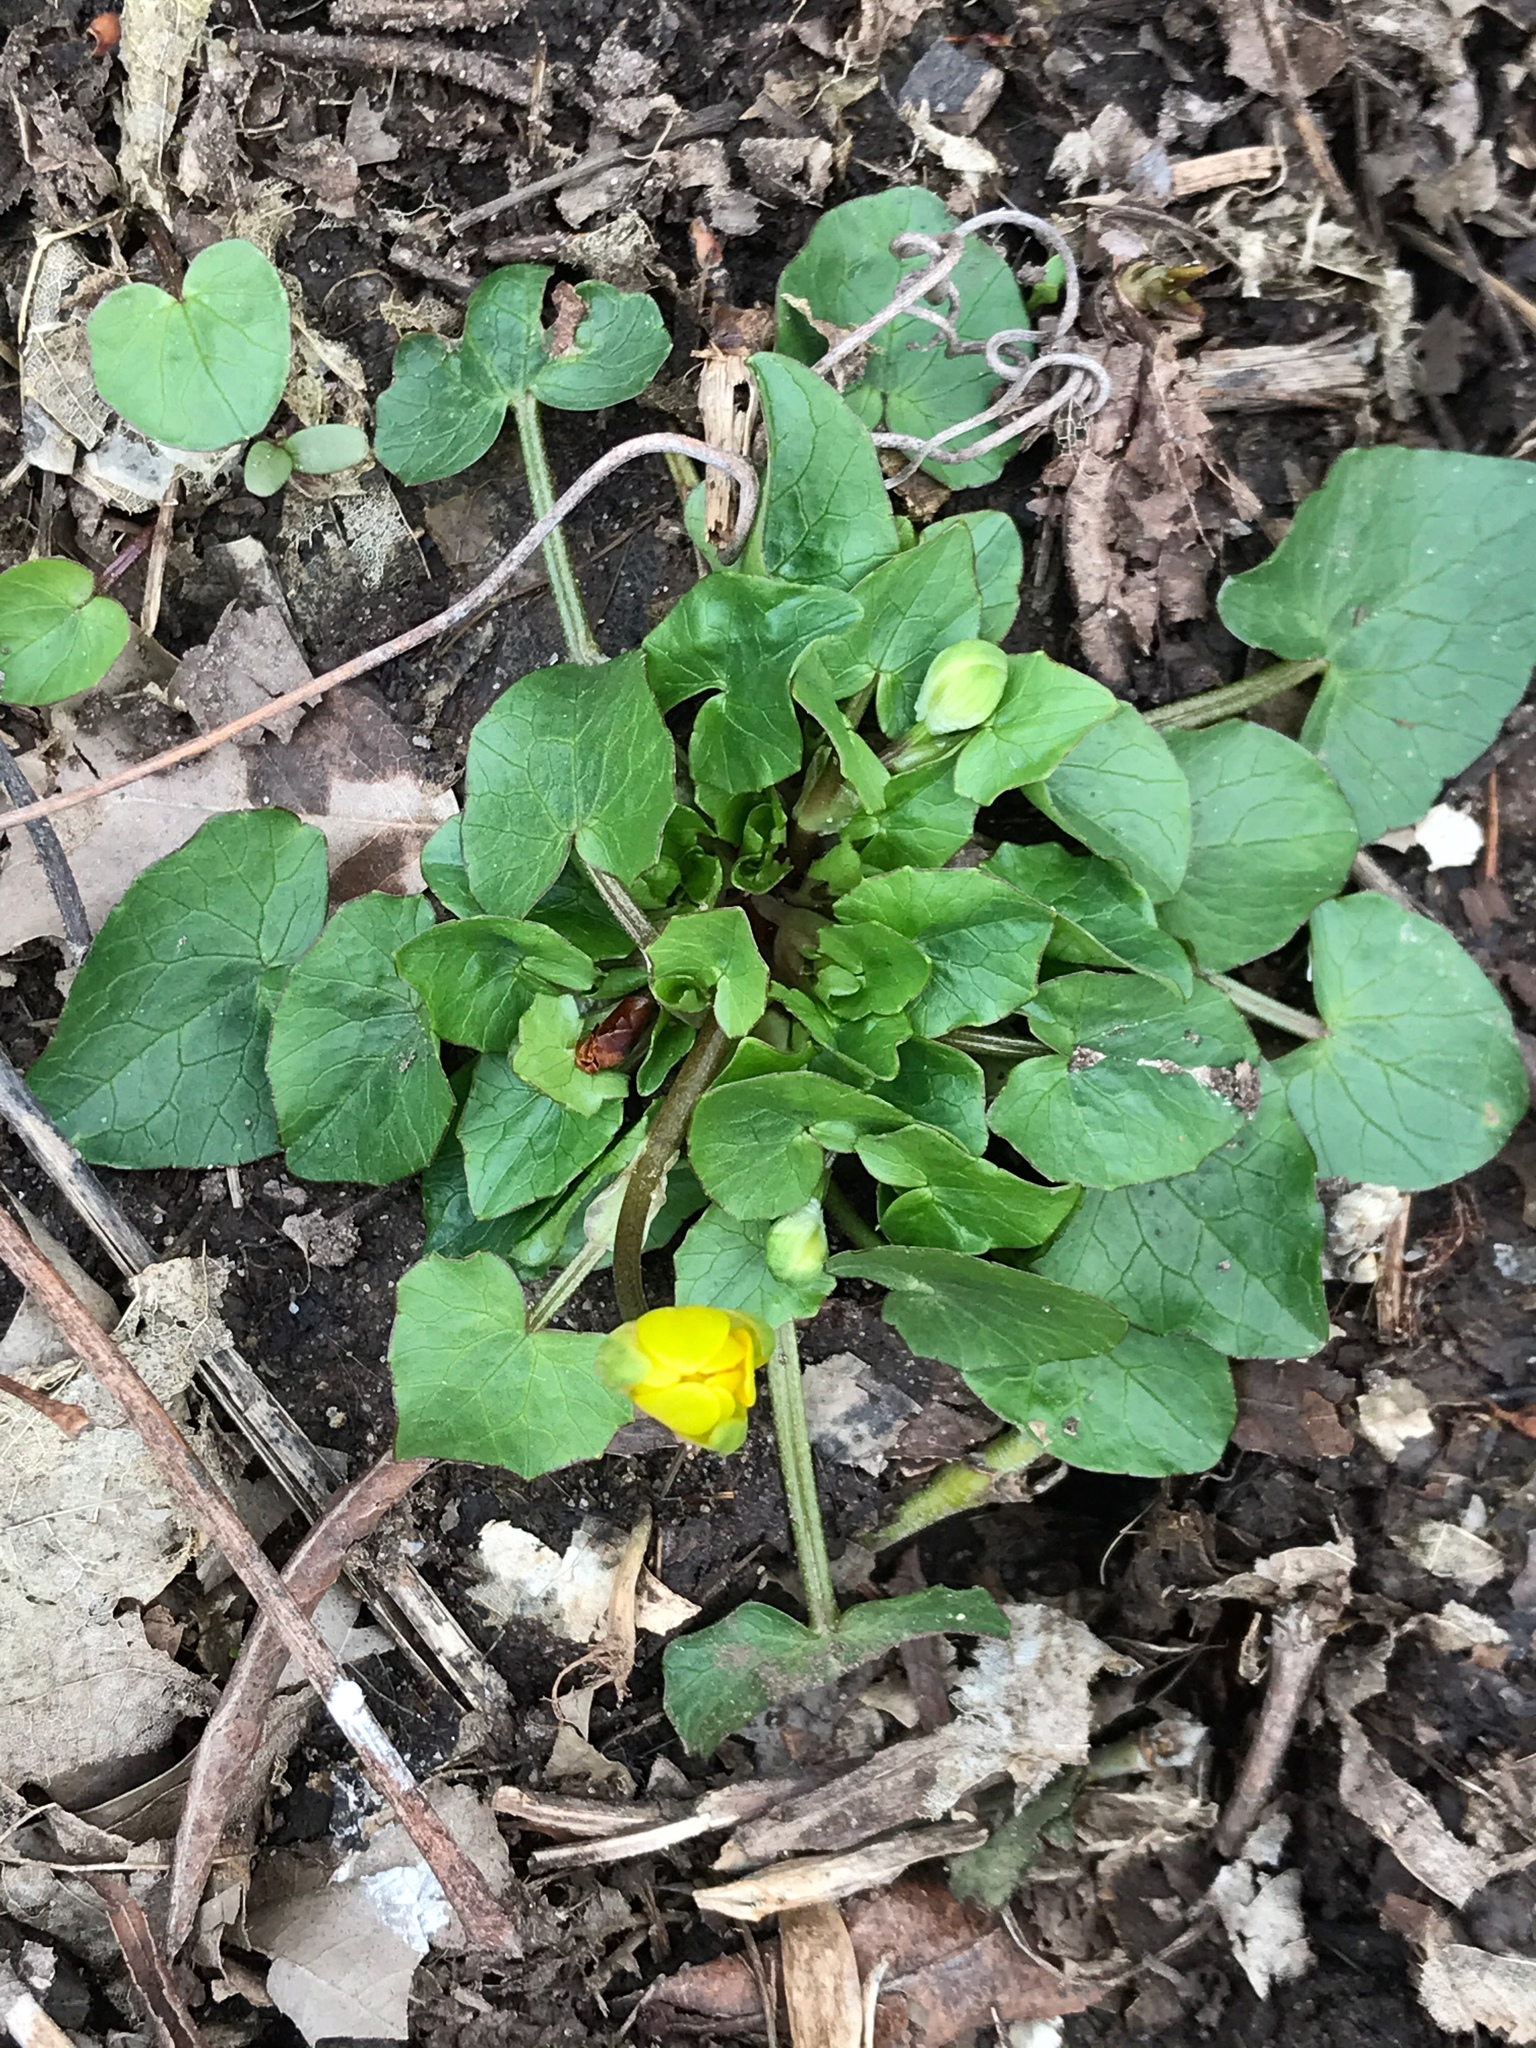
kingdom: Plantae
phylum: Tracheophyta
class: Magnoliopsida
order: Ranunculales
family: Ranunculaceae
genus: Ficaria
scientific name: Ficaria verna
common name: Lesser celandine
